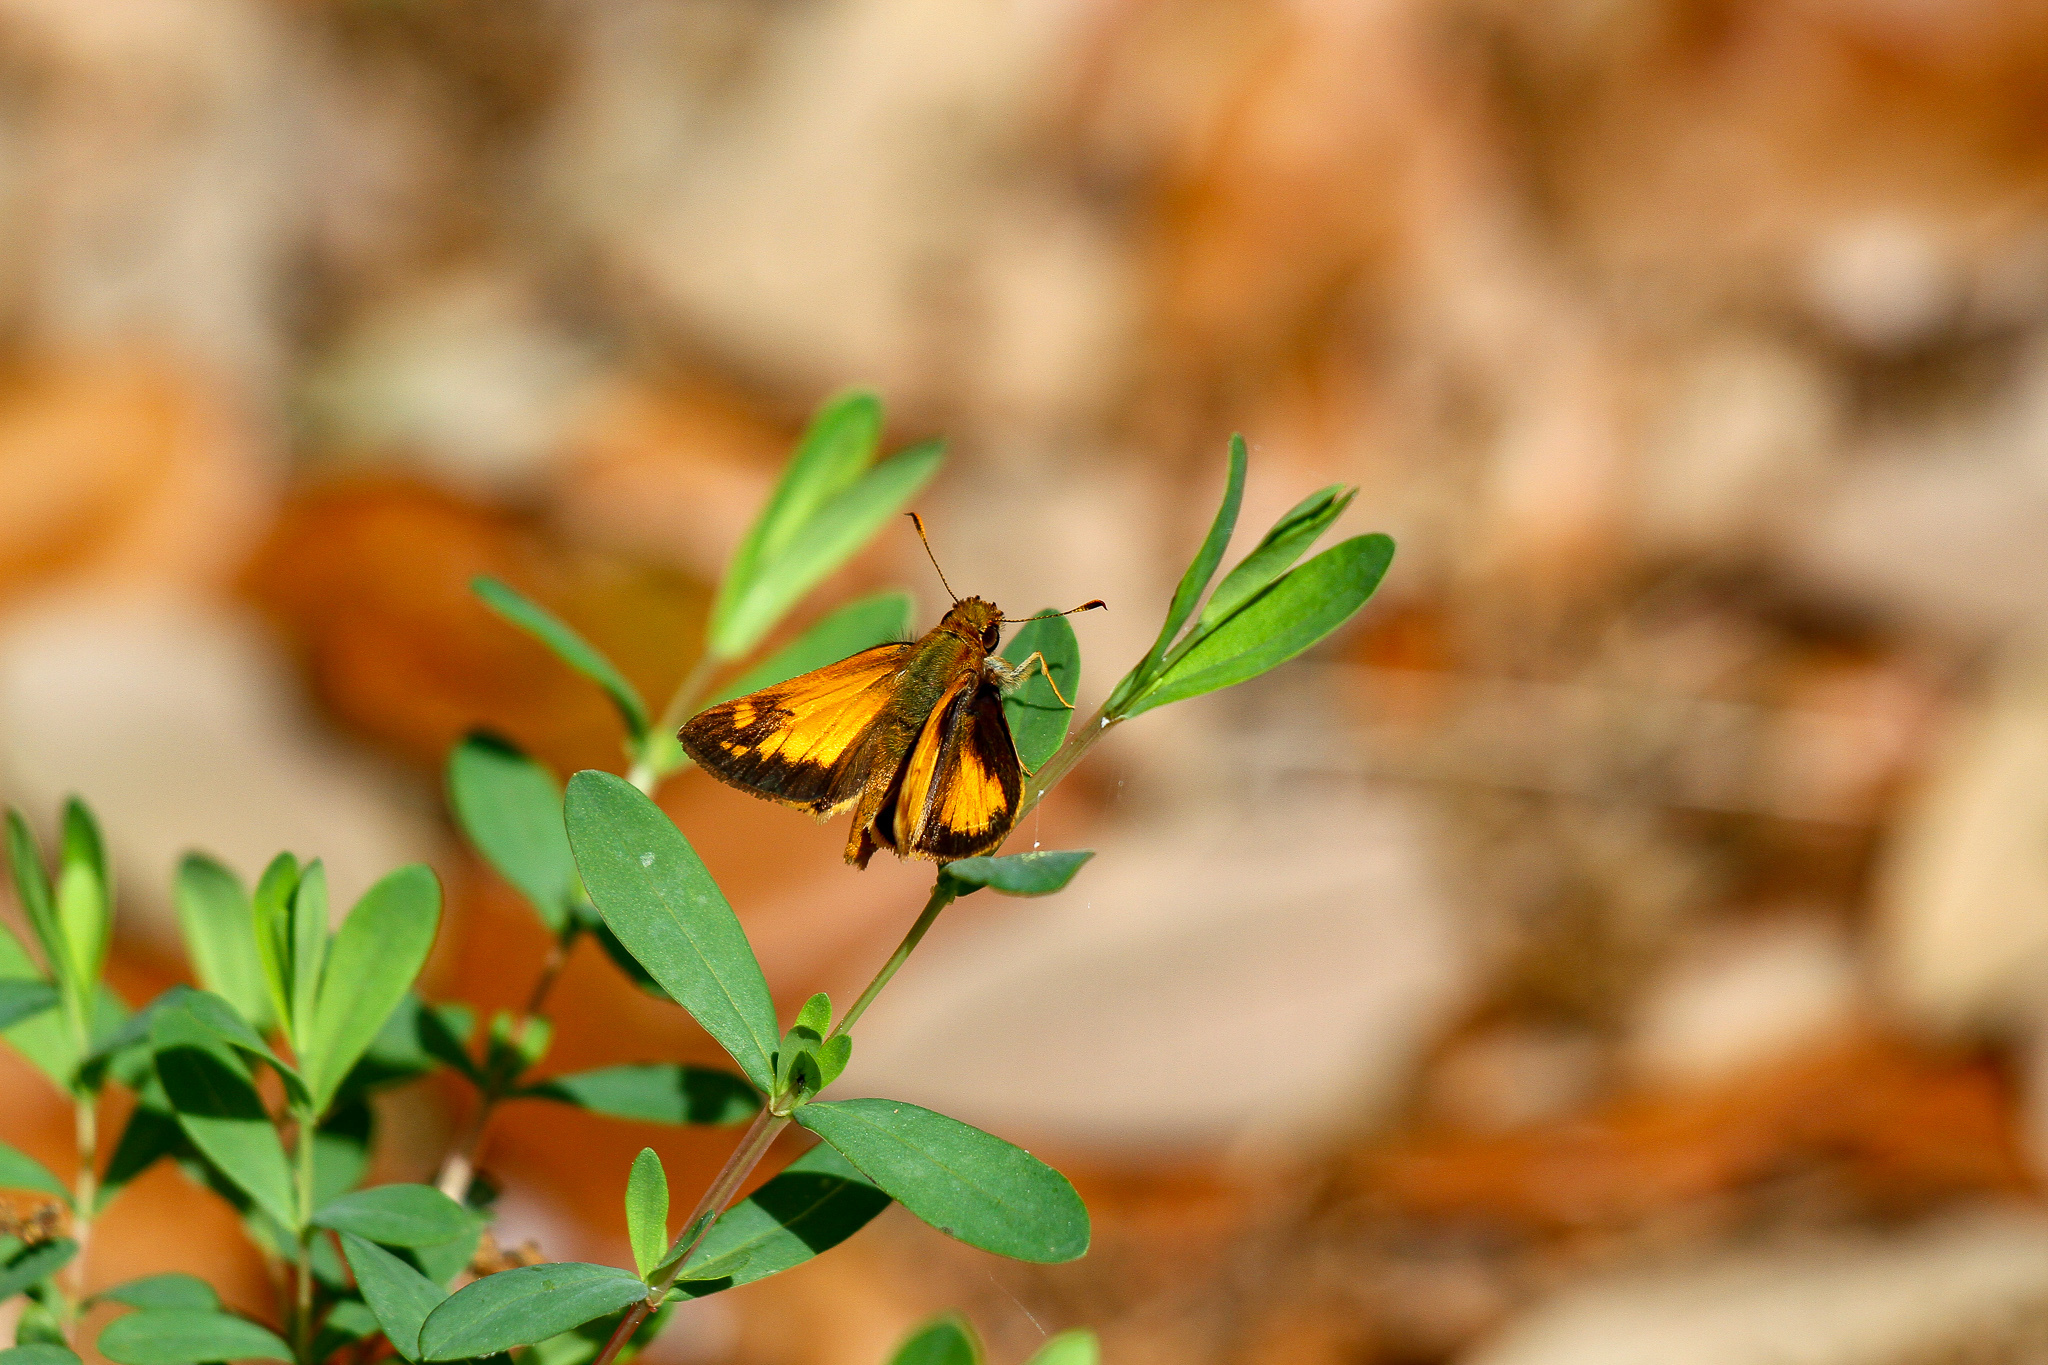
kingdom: Animalia
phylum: Arthropoda
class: Insecta
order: Lepidoptera
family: Hesperiidae
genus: Lon
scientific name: Lon zabulon
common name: Zabulon skipper
